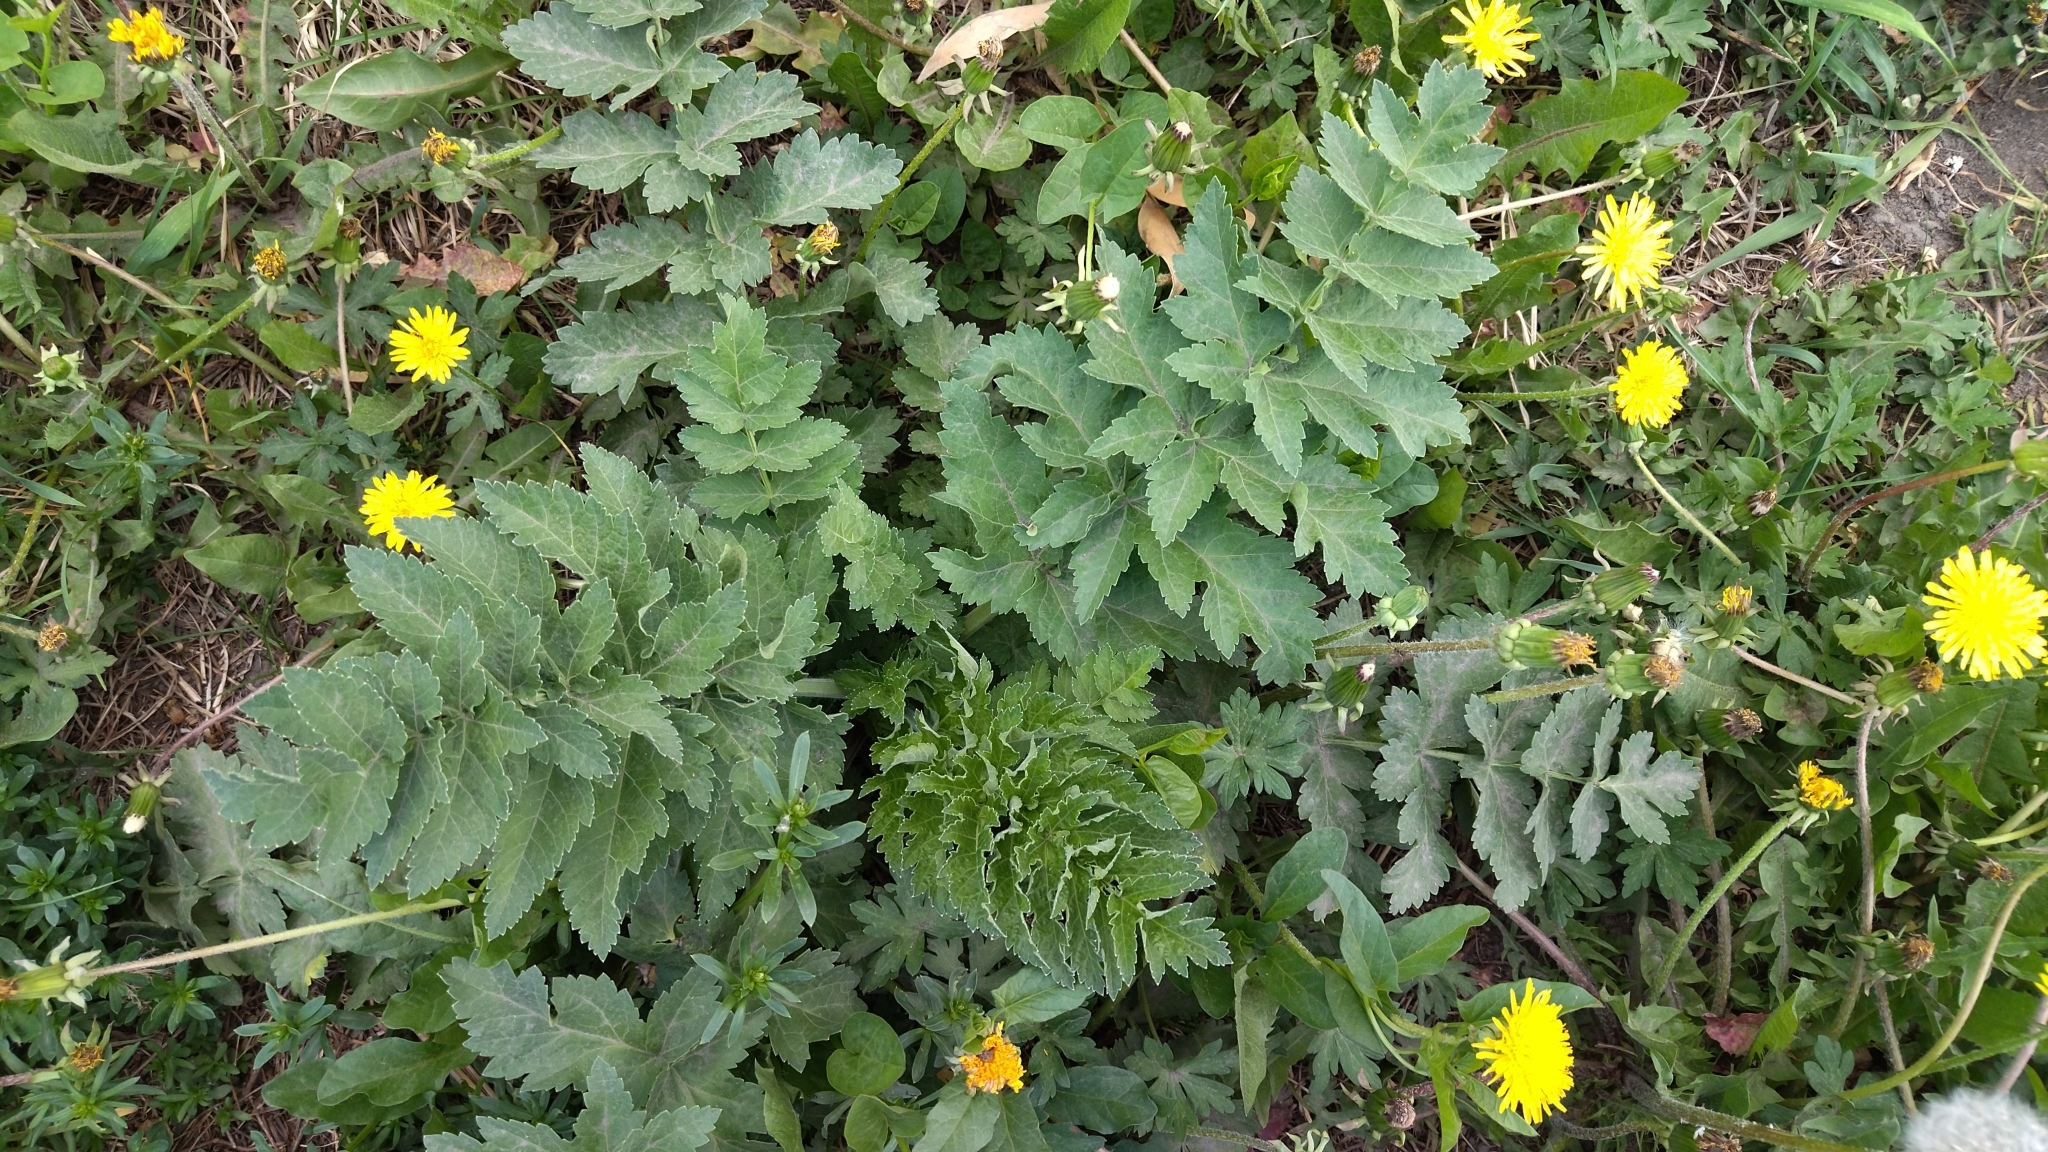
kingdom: Plantae
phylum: Tracheophyta
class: Magnoliopsida
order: Apiales
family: Apiaceae
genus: Pastinaca
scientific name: Pastinaca sativa
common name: Wild parsnip
